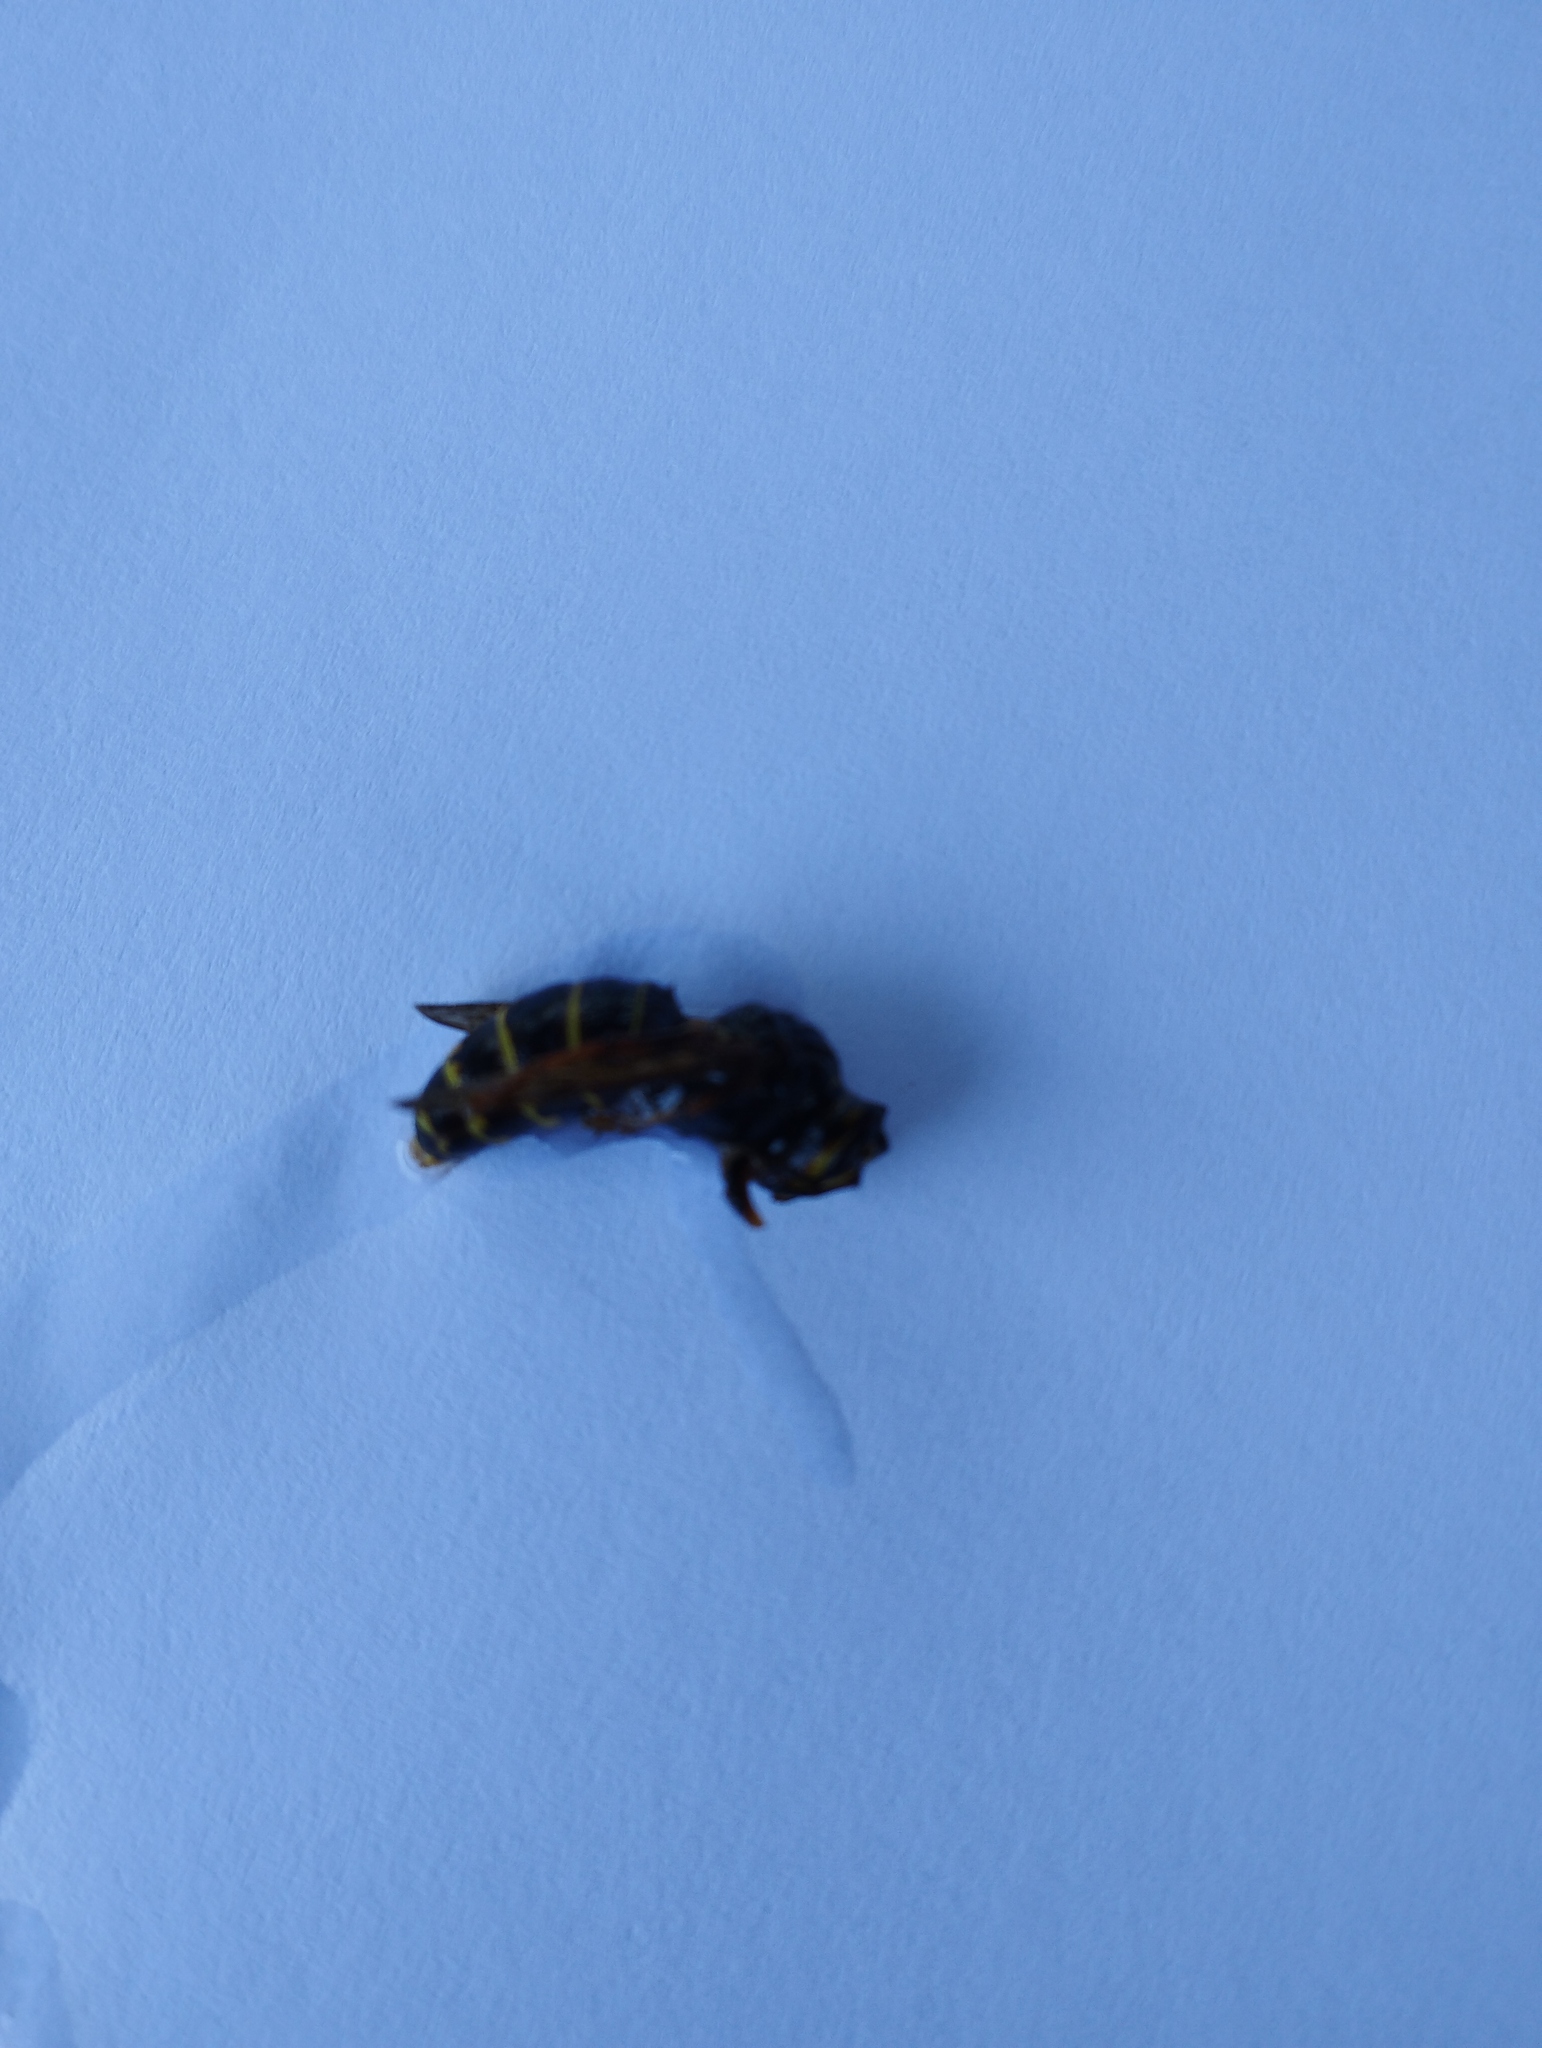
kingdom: Animalia
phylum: Arthropoda
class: Insecta
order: Hymenoptera
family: Vespidae
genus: Dolichovespula
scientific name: Dolichovespula media
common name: Median wasp
